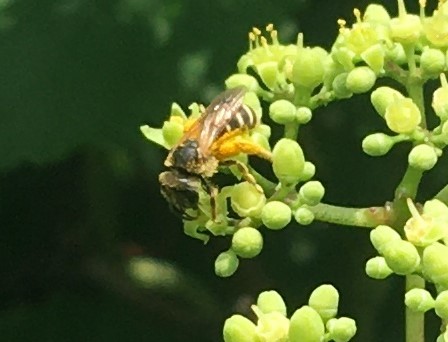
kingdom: Animalia
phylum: Arthropoda
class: Insecta
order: Hymenoptera
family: Halictidae
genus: Halictus
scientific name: Halictus ligatus
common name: Ligated furrow bee
